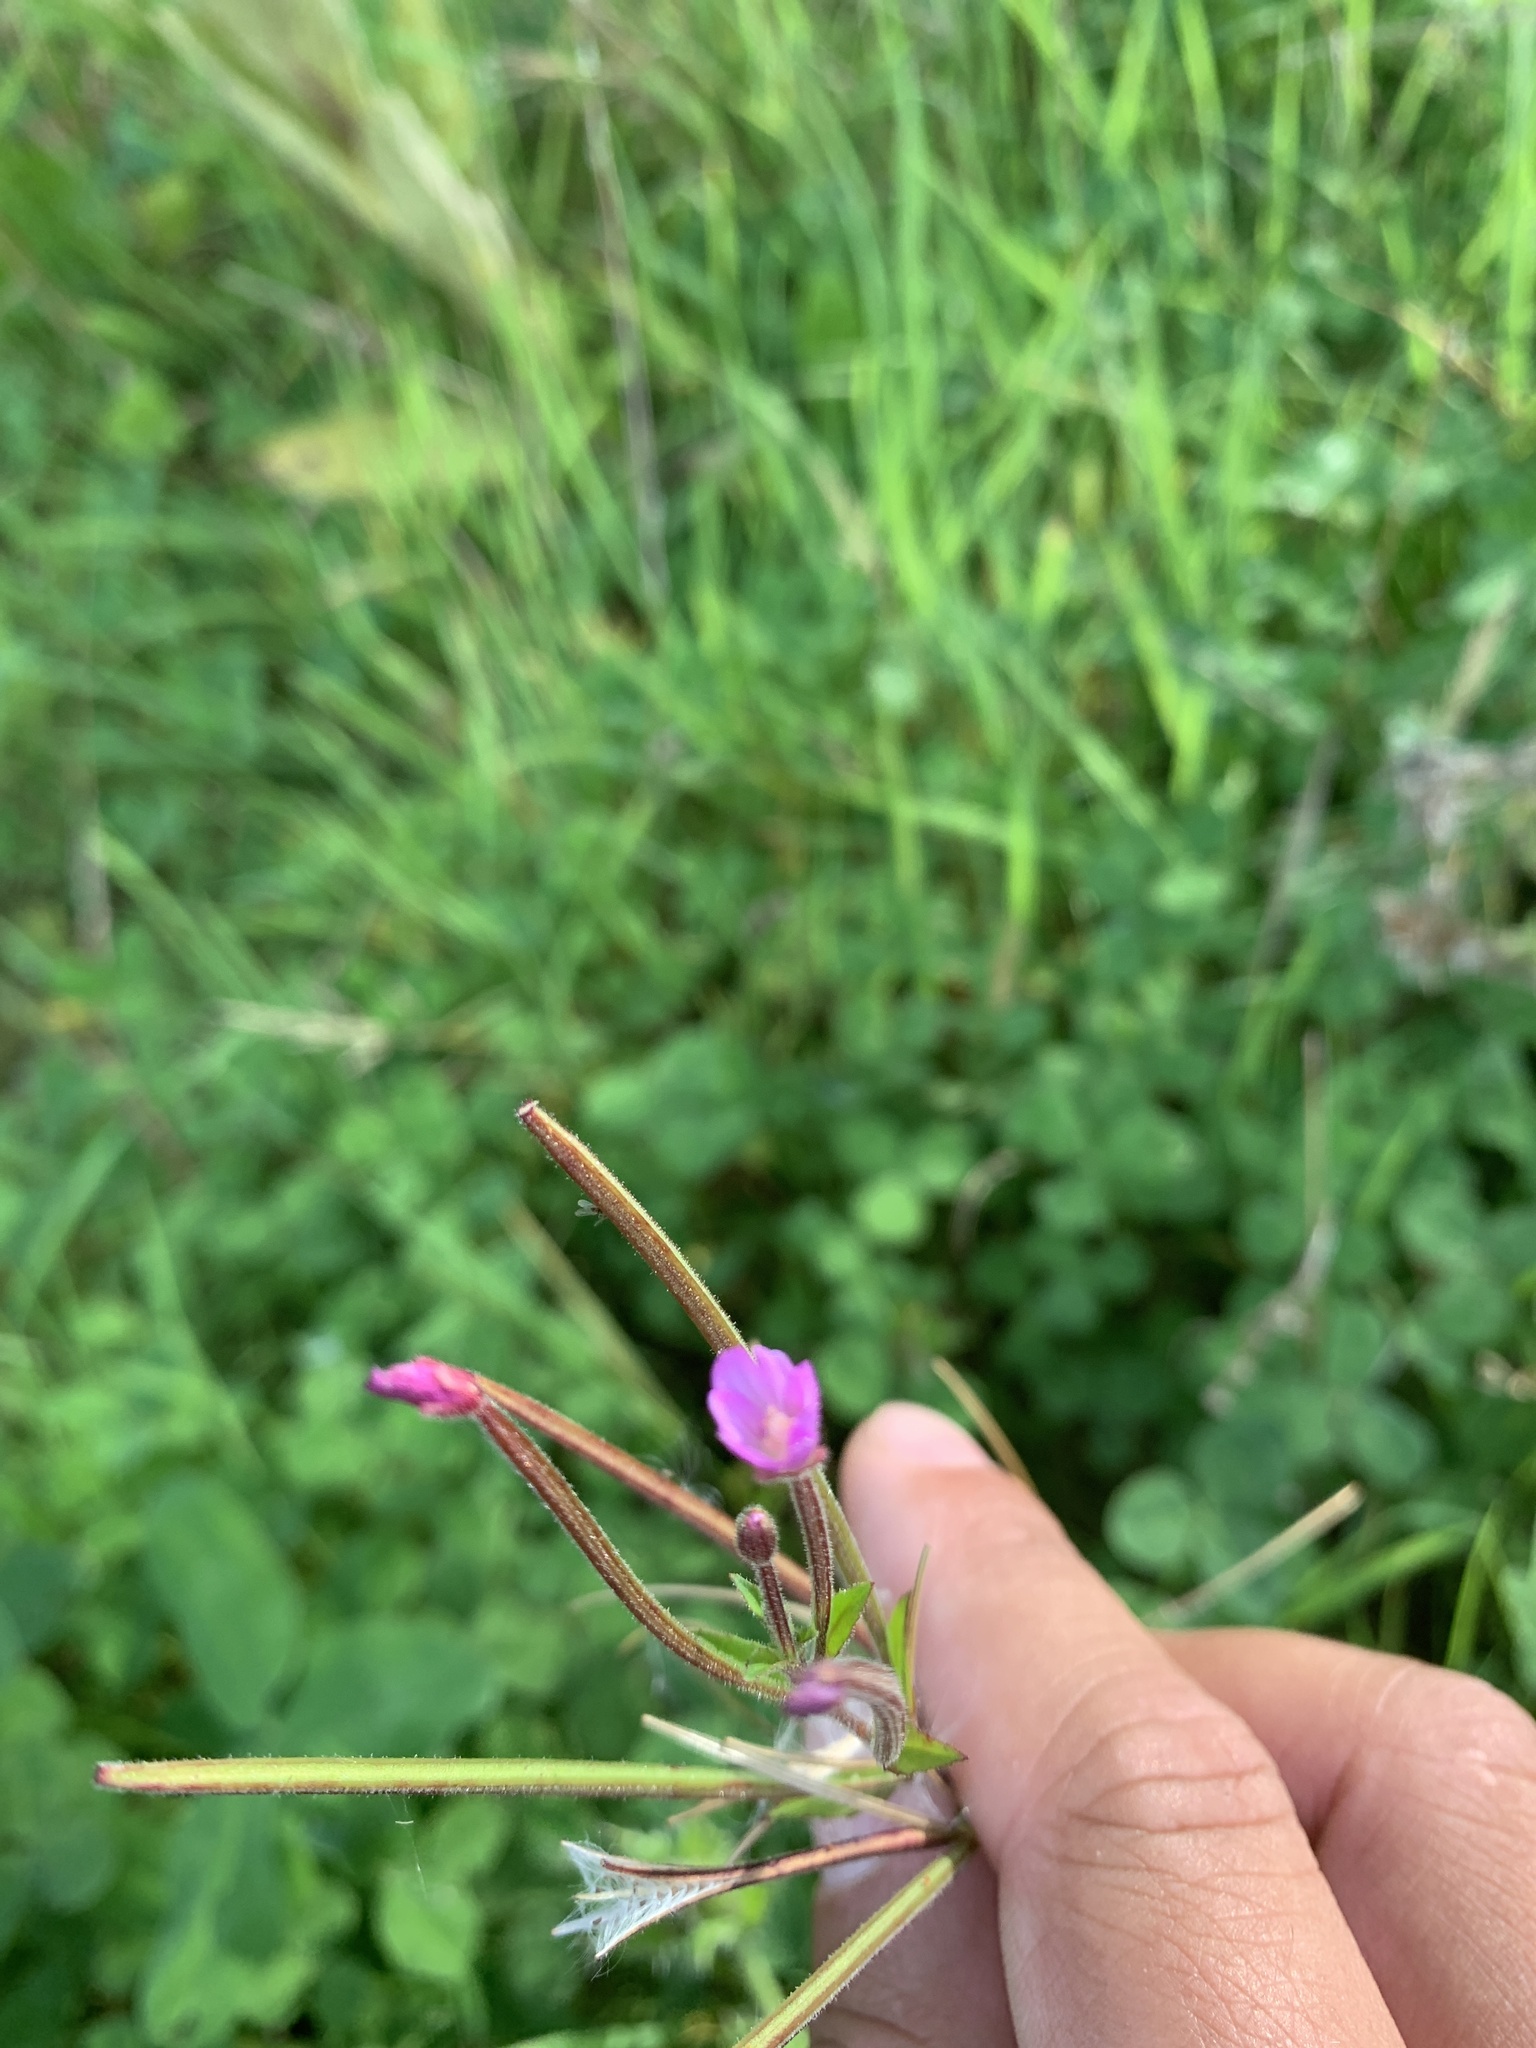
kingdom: Plantae
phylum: Tracheophyta
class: Magnoliopsida
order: Myrtales
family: Onagraceae
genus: Epilobium
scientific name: Epilobium hirsutum
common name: Great willowherb
